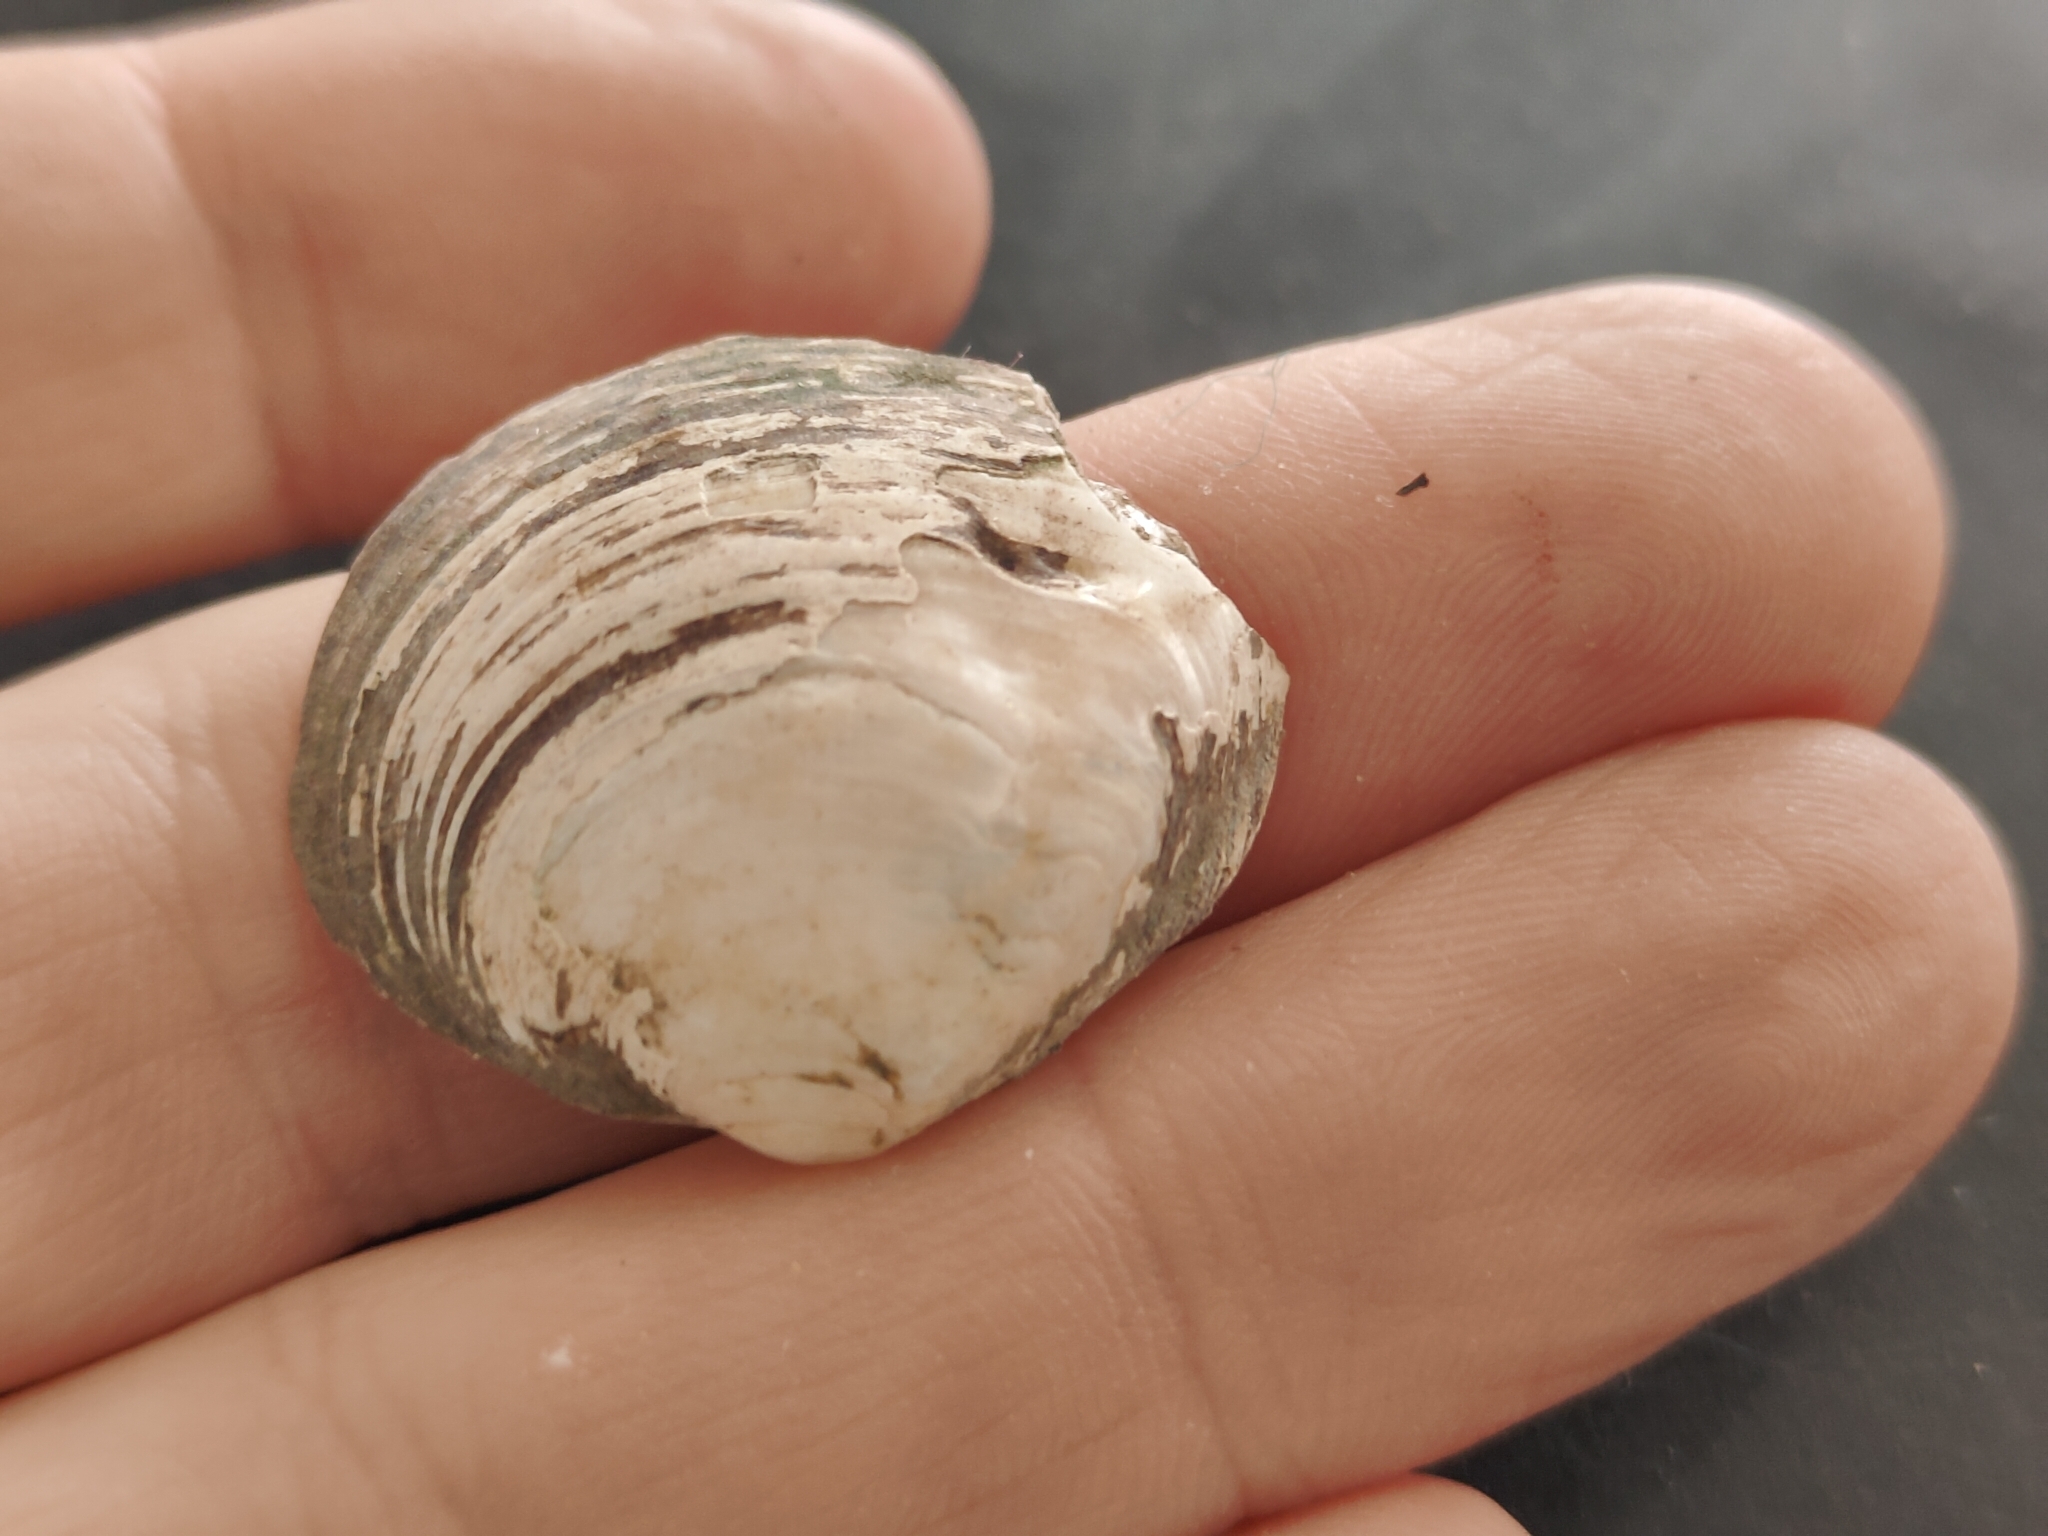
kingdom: Animalia
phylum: Mollusca
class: Bivalvia
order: Unionida
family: Unionidae
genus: Cyclonaias
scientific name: Cyclonaias pustulosa
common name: Pimpleback
